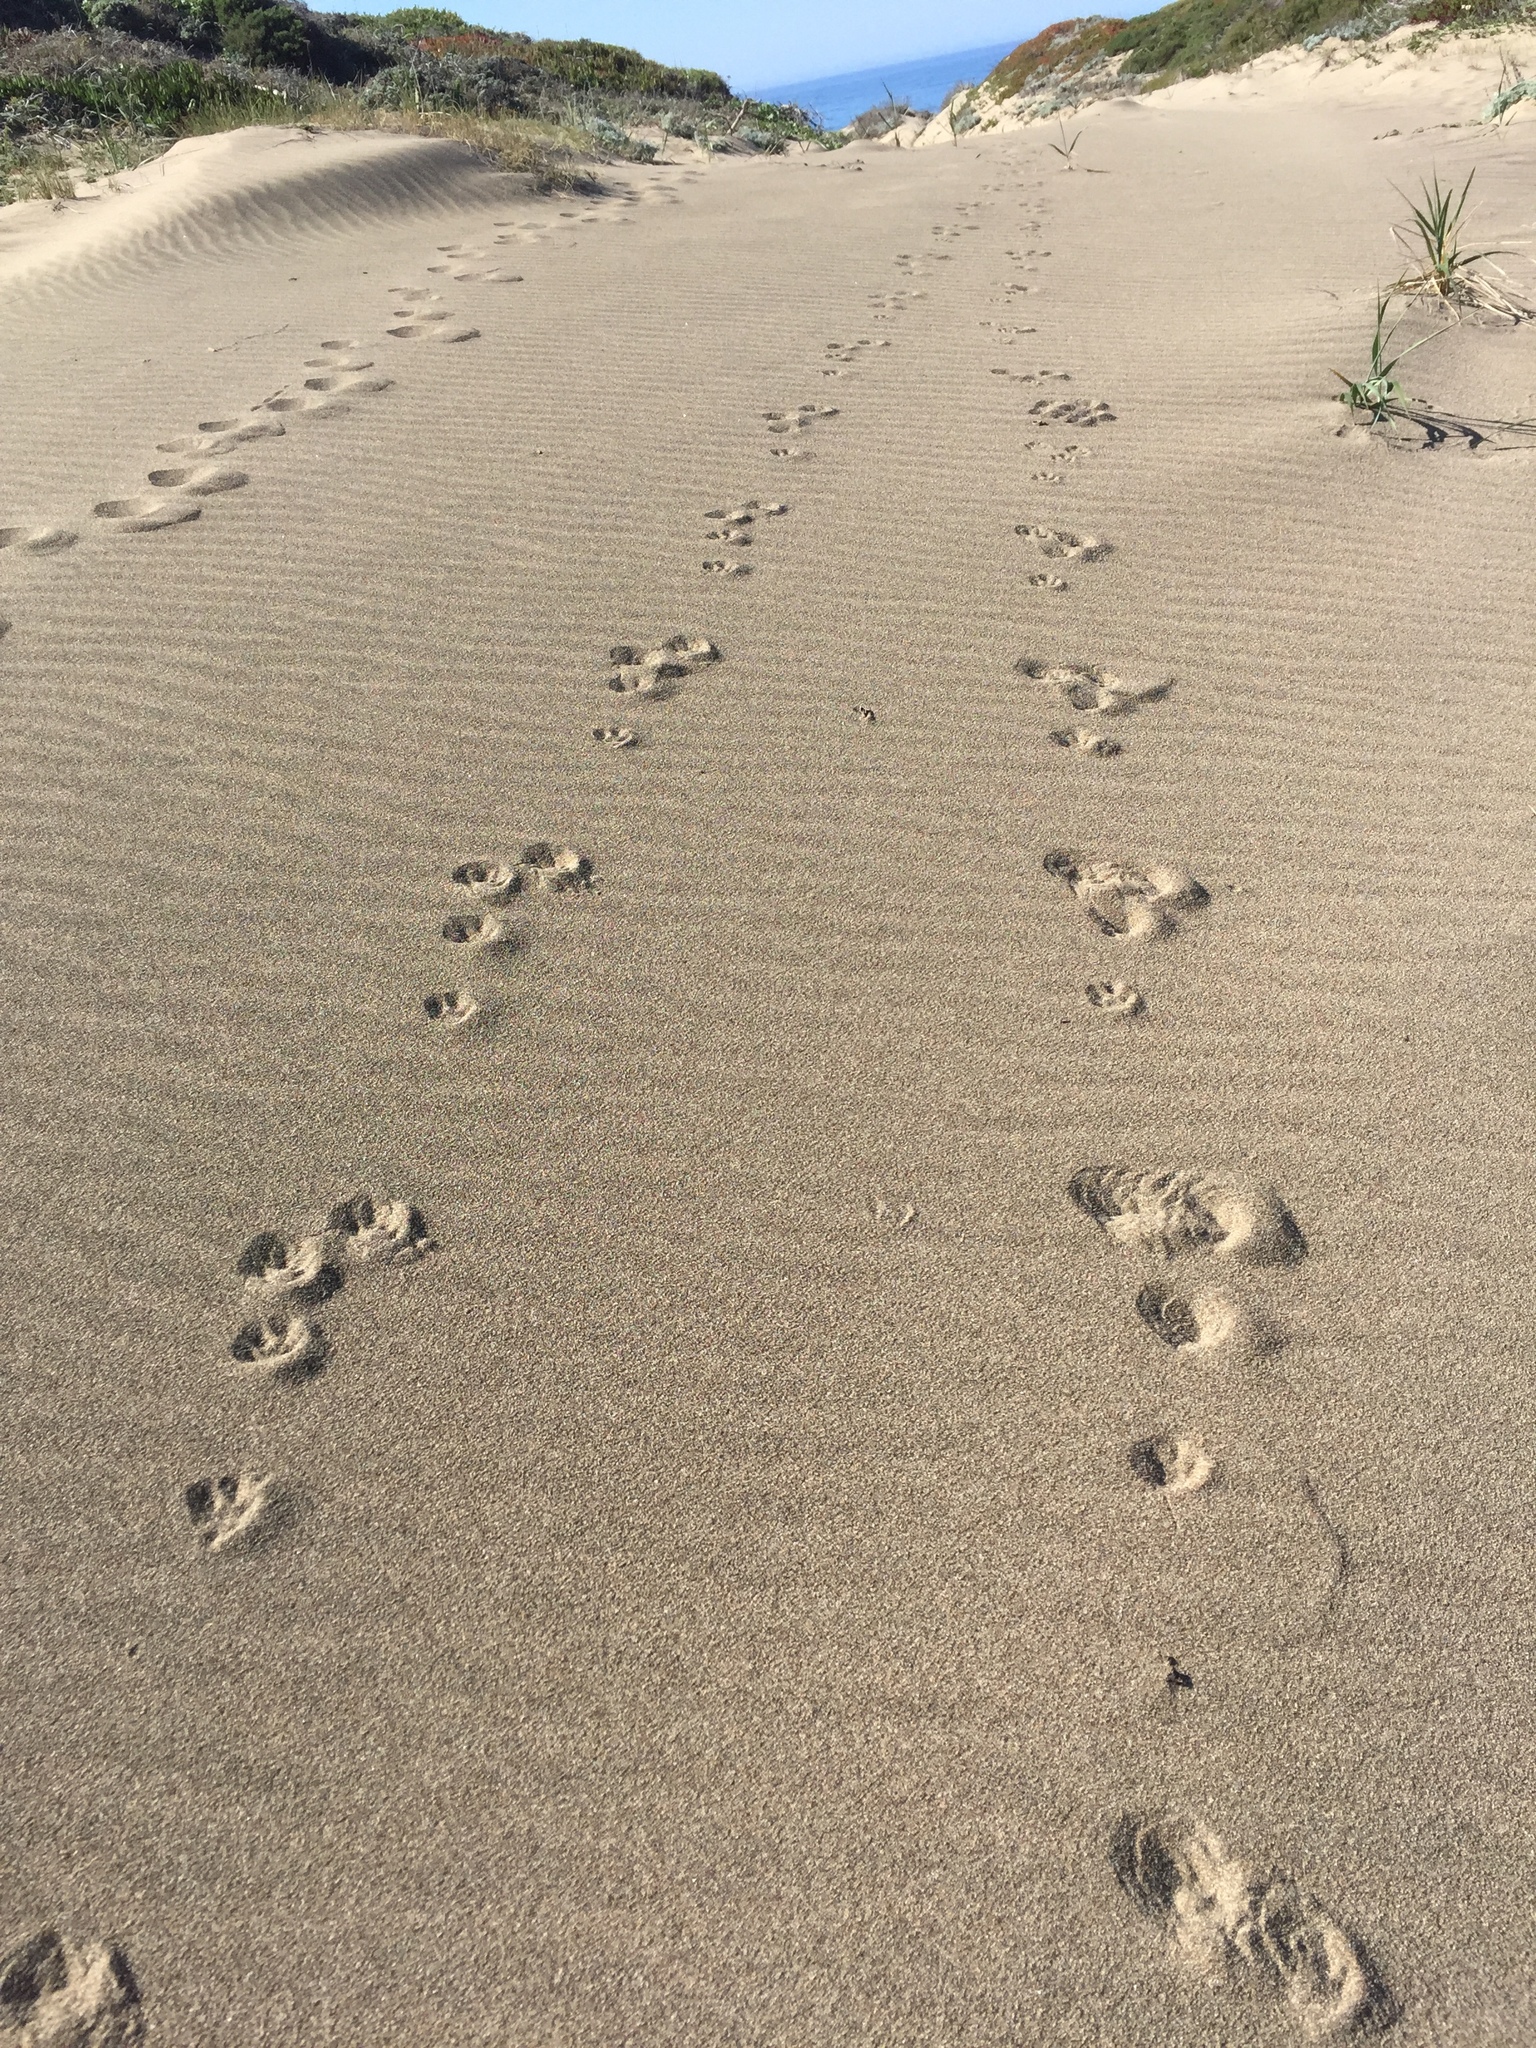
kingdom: Animalia
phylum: Chordata
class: Mammalia
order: Lagomorpha
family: Leporidae
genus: Lepus
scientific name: Lepus californicus
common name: Black-tailed jackrabbit
